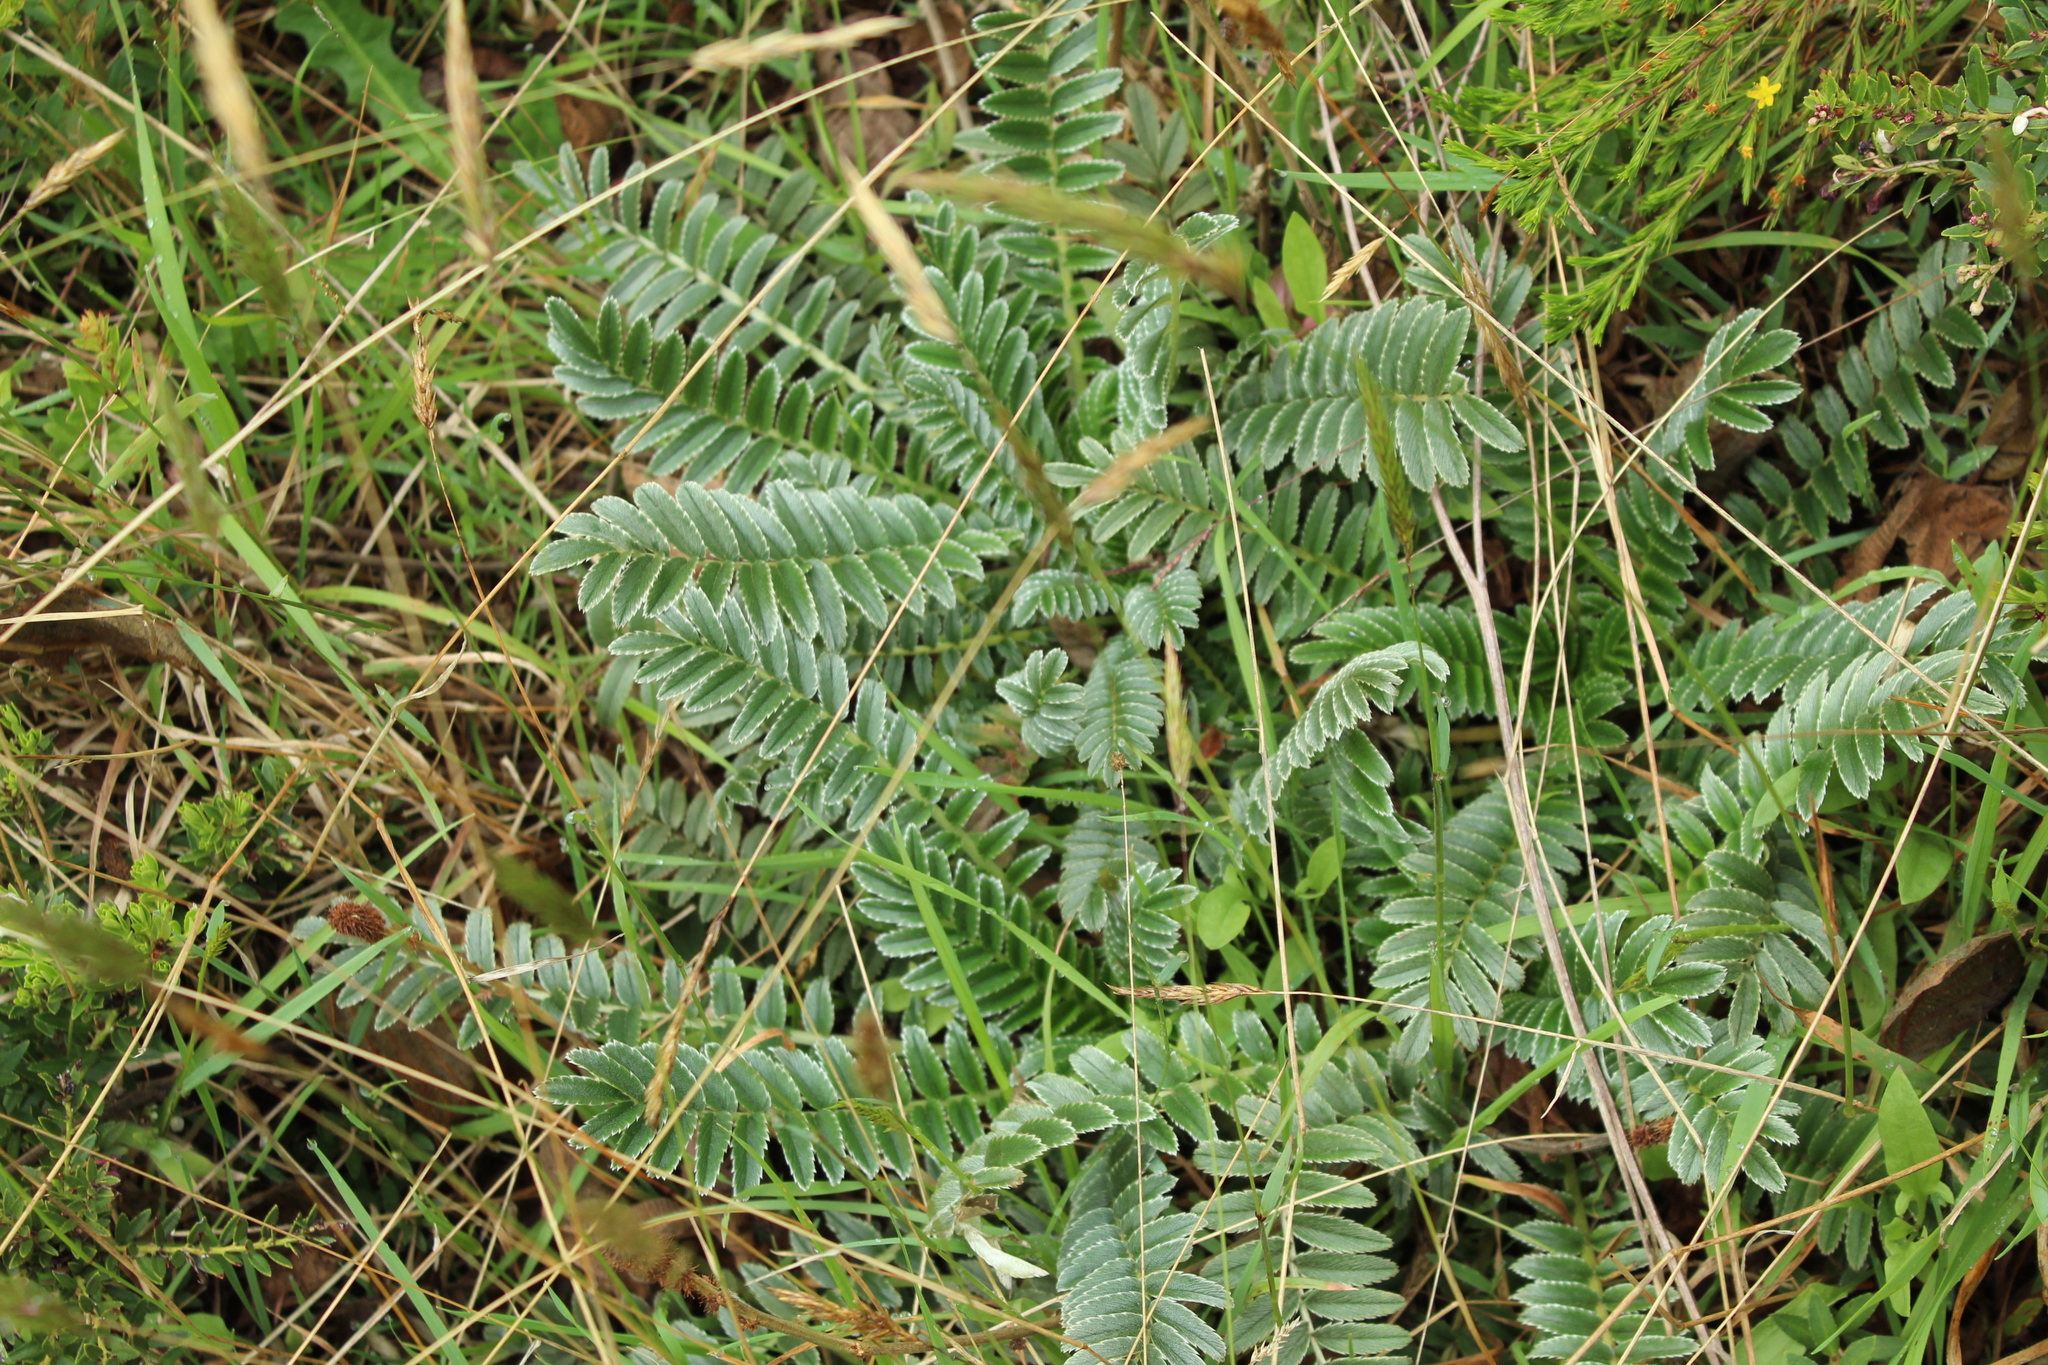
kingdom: Plantae
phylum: Tracheophyta
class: Magnoliopsida
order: Rosales
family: Rosaceae
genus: Acaena
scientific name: Acaena cylindristachya
